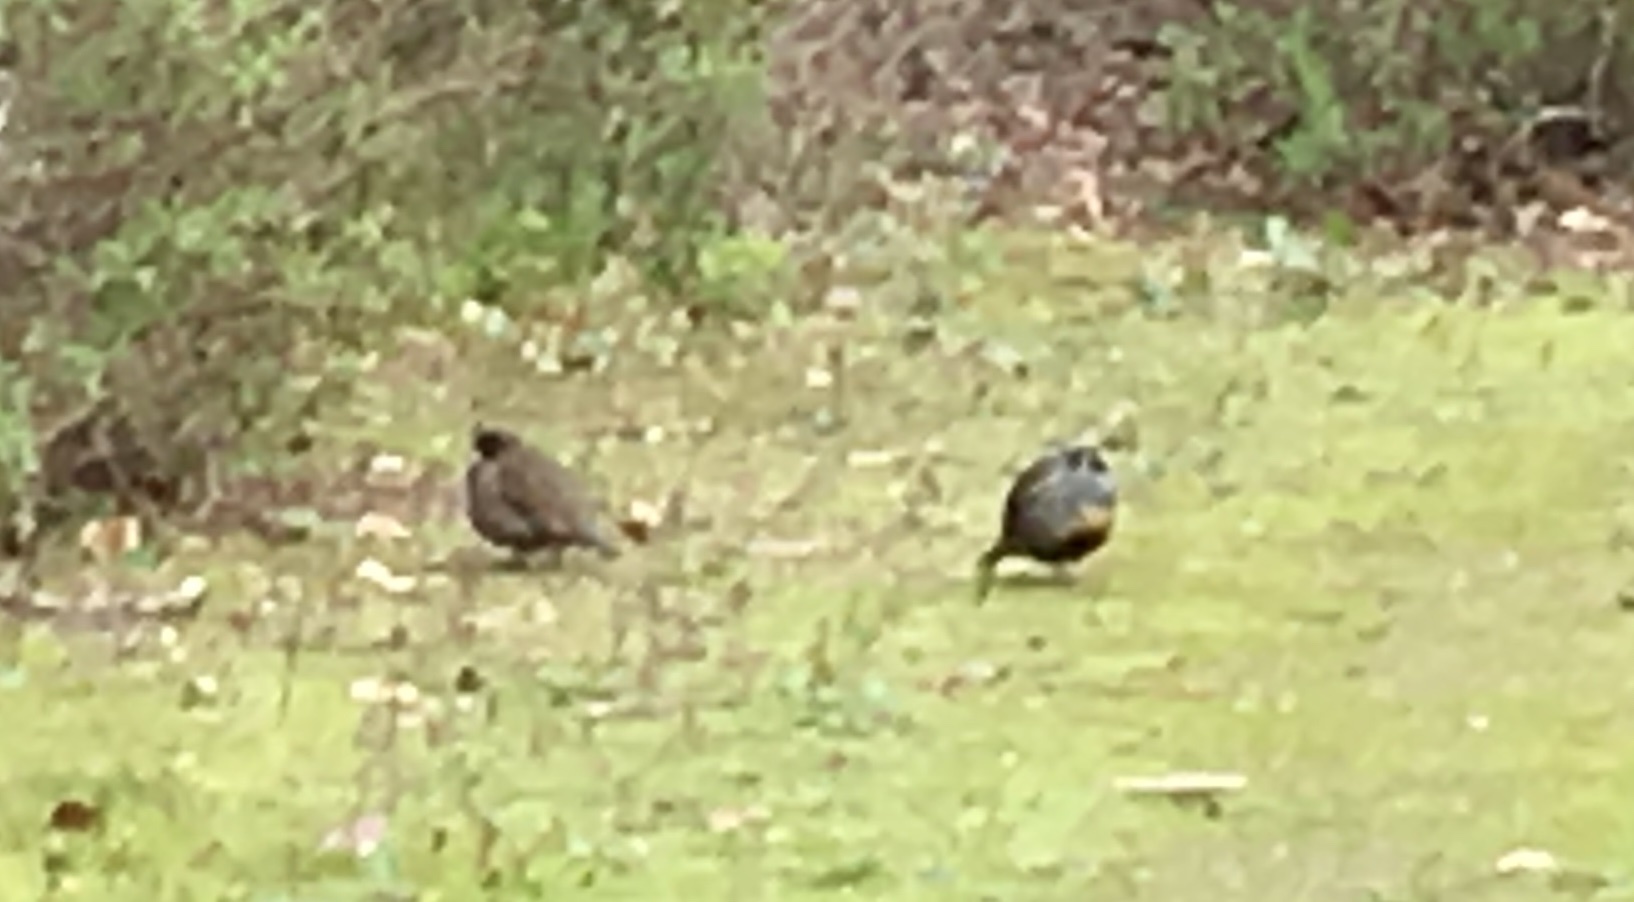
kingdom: Animalia
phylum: Chordata
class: Aves
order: Galliformes
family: Odontophoridae
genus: Callipepla
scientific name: Callipepla californica
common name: California quail
